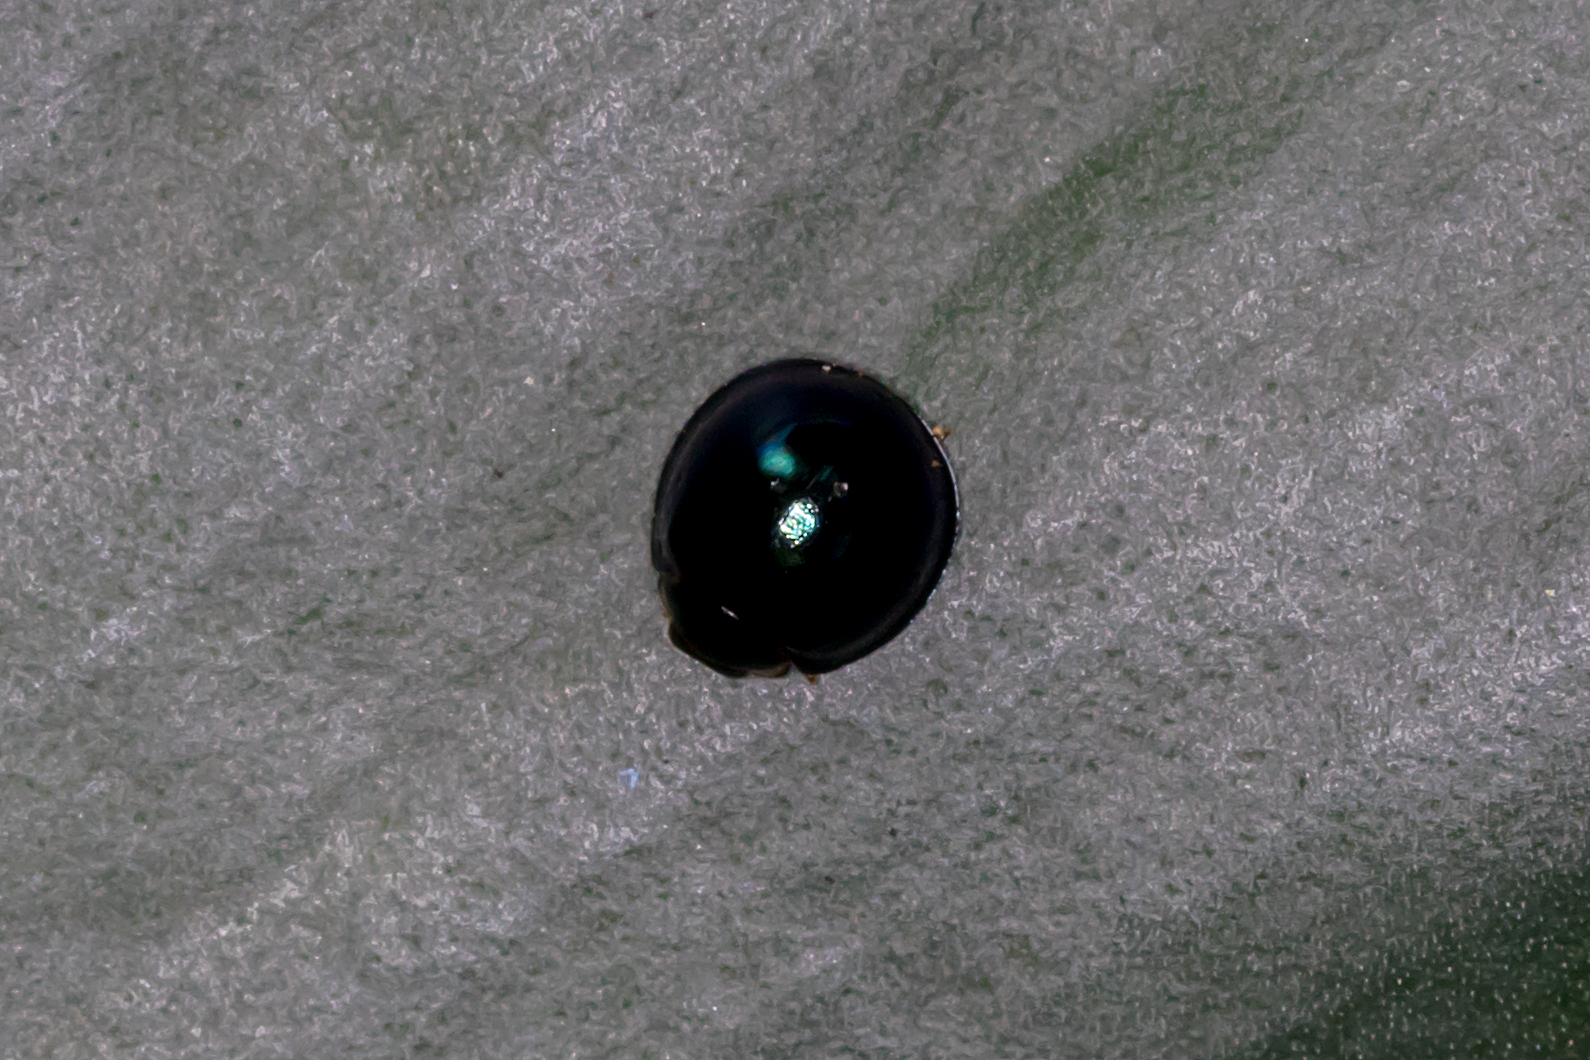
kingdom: Animalia
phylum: Arthropoda
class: Insecta
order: Coleoptera
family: Coccinellidae
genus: Halmus
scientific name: Halmus chalybeus
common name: Steel blue ladybird beetle
